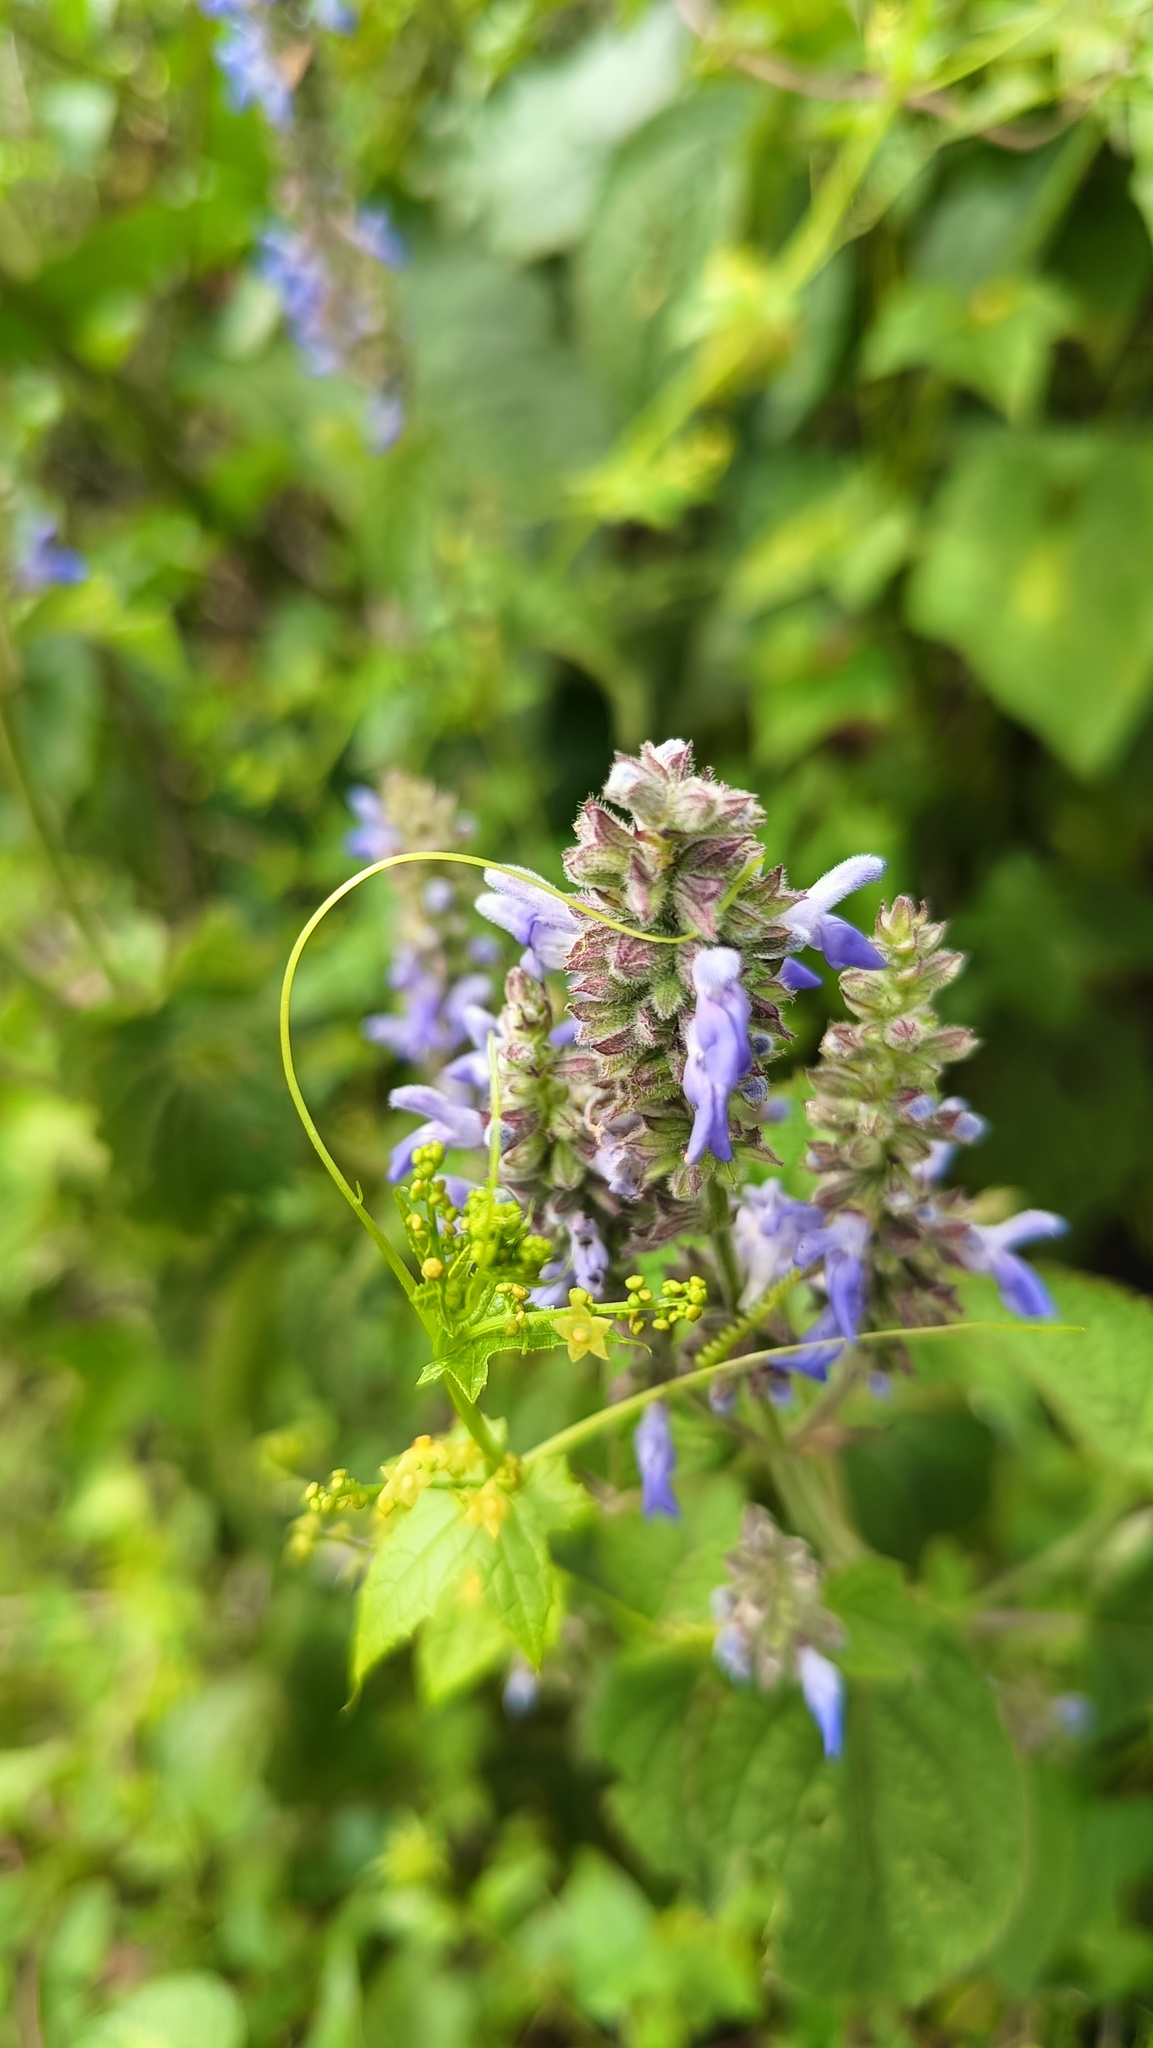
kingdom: Plantae
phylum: Tracheophyta
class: Magnoliopsida
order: Lamiales
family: Lamiaceae
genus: Salvia
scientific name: Salvia polystachia
